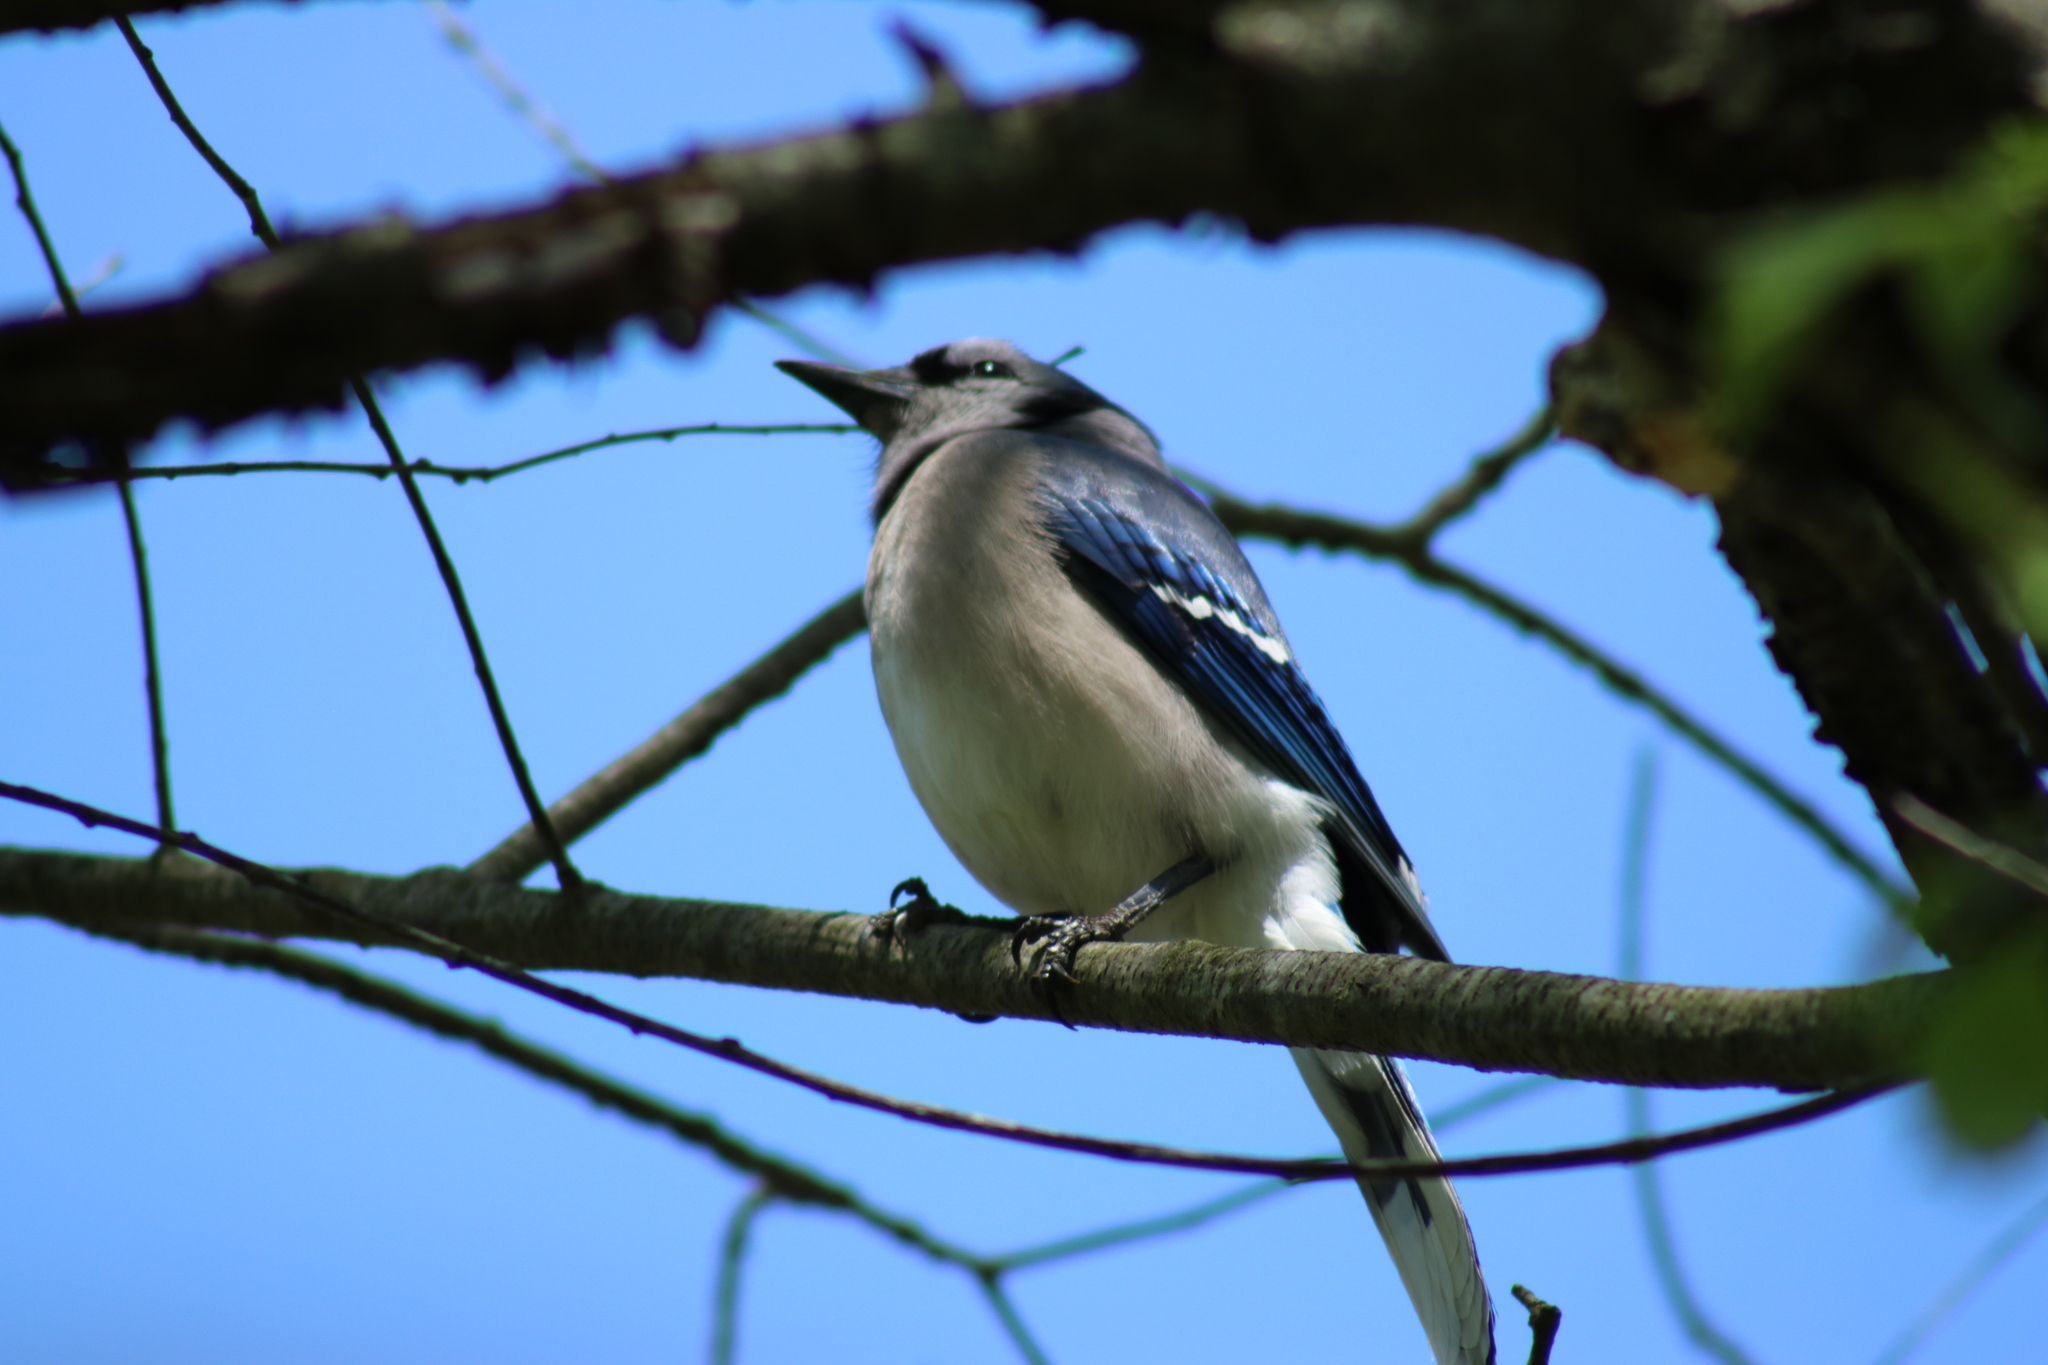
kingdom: Animalia
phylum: Chordata
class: Aves
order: Passeriformes
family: Corvidae
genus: Cyanocitta
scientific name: Cyanocitta cristata
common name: Blue jay
